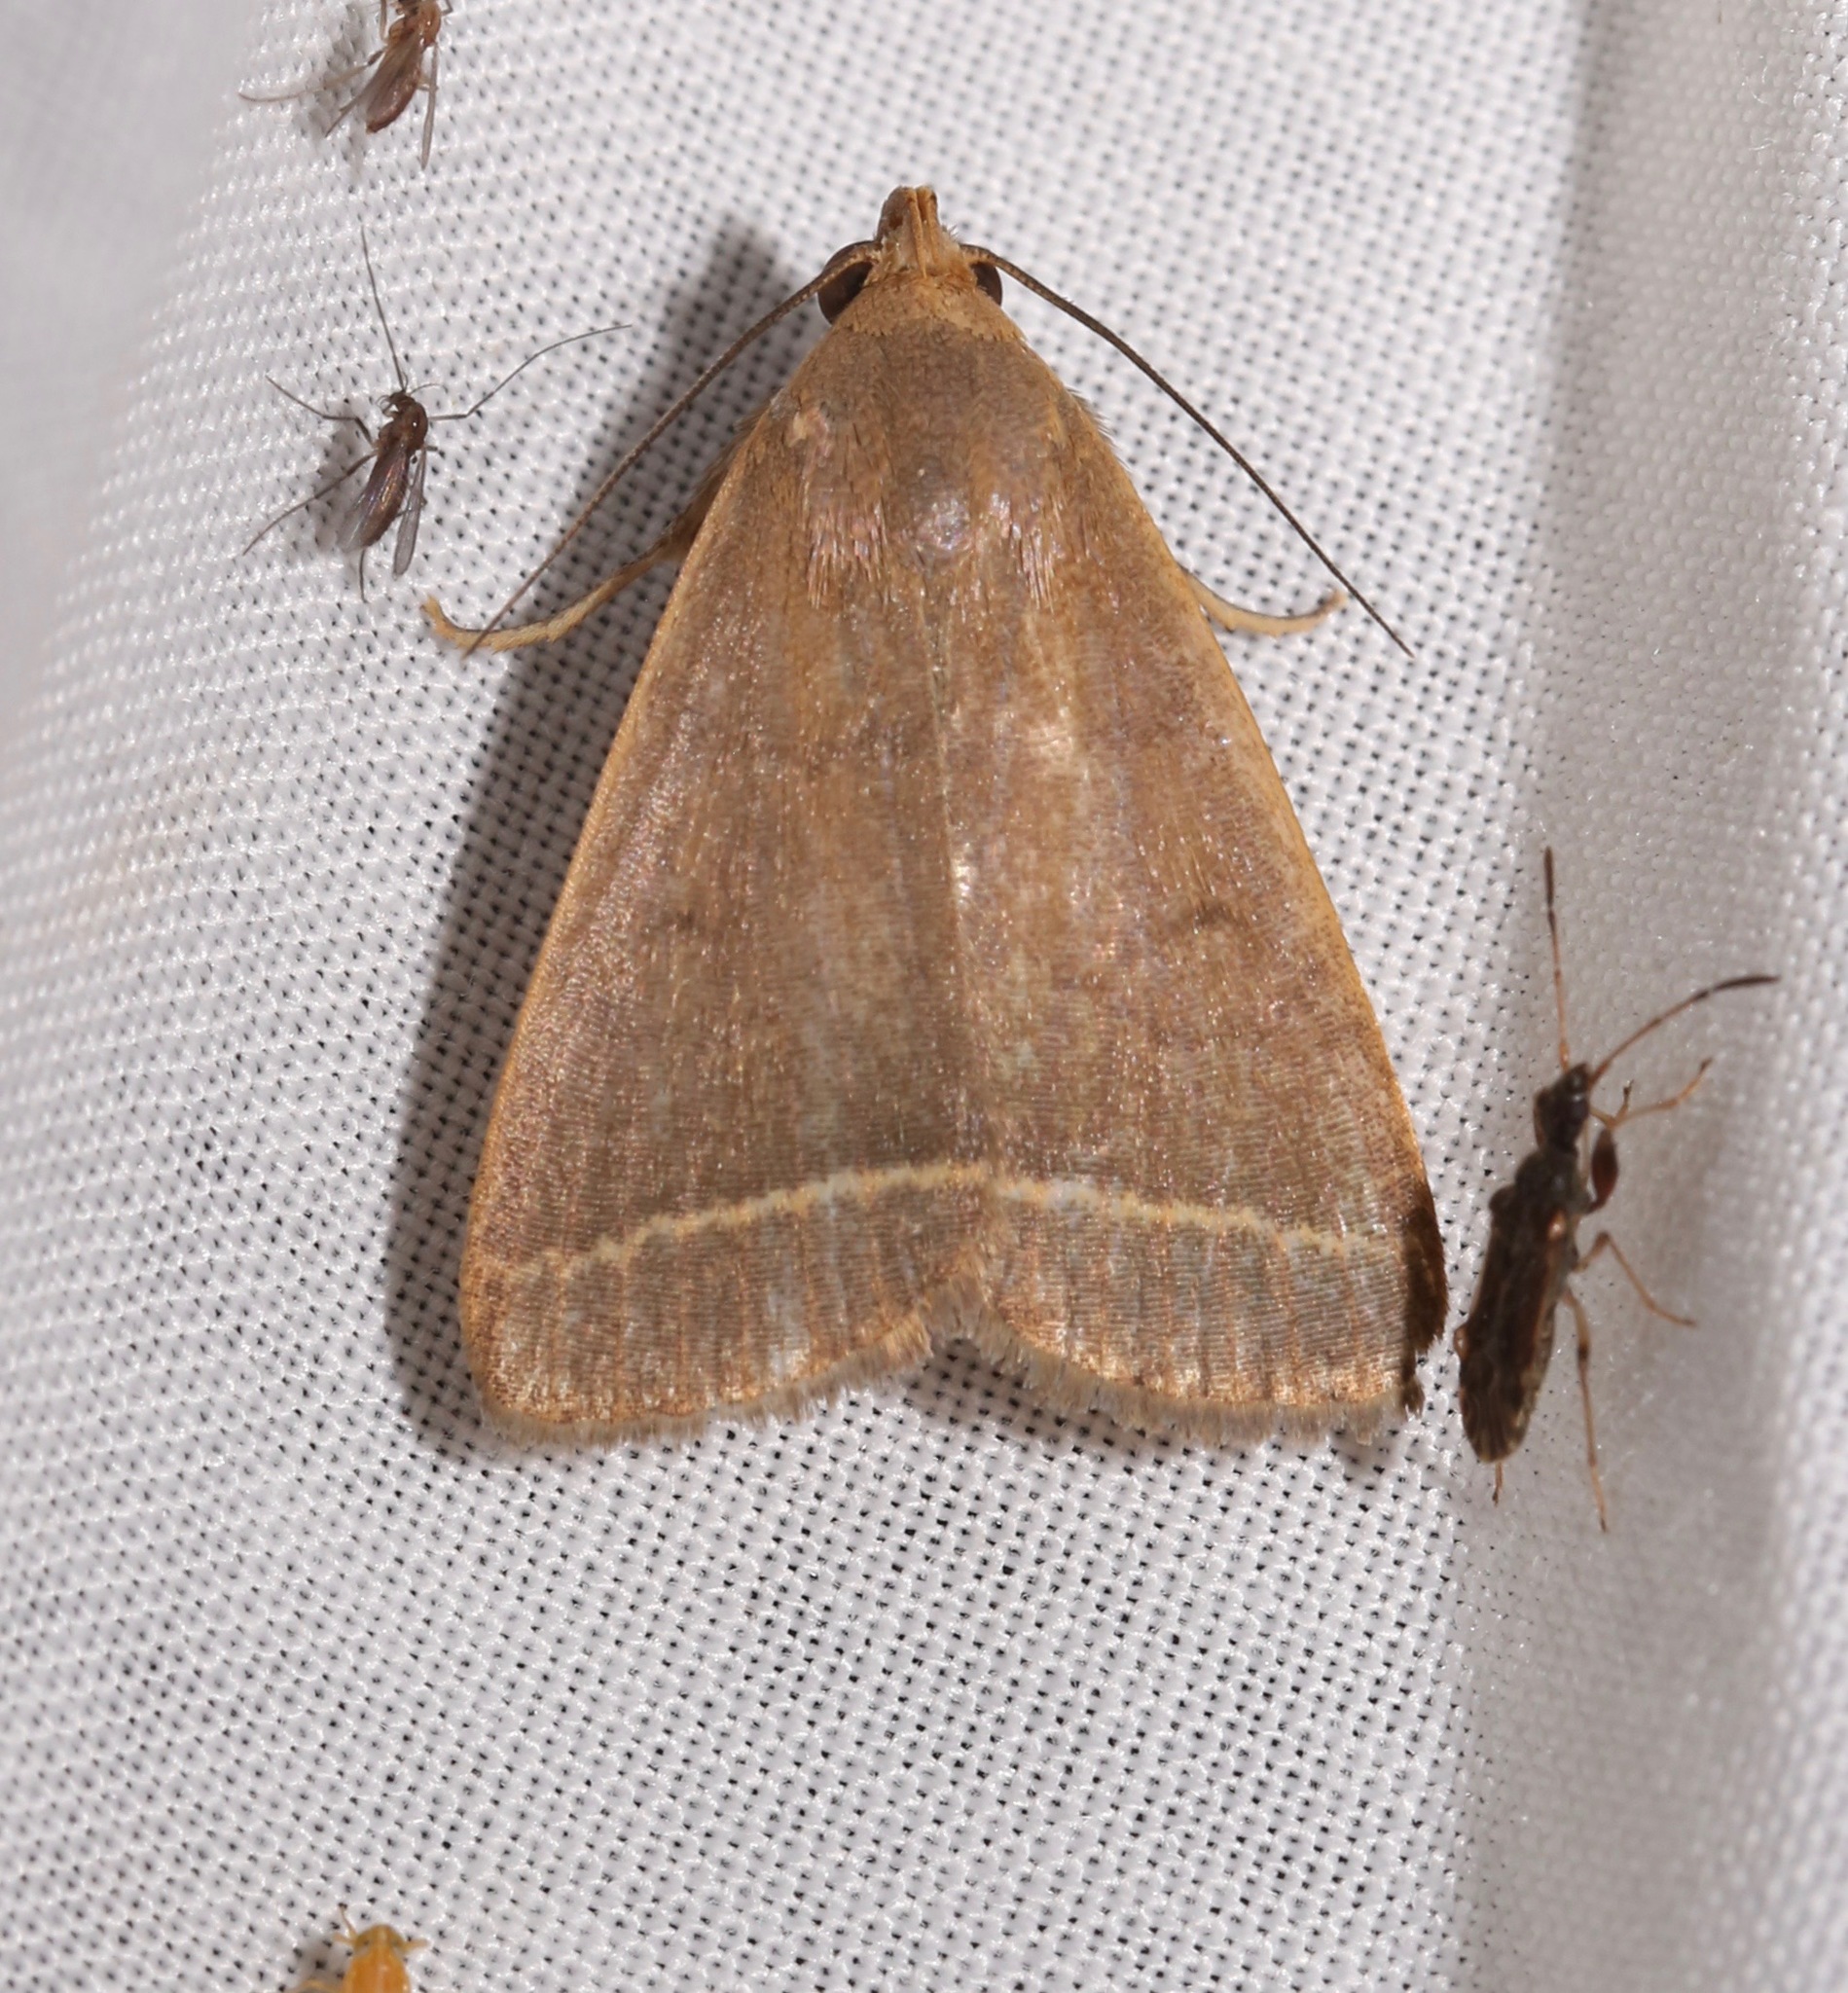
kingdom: Animalia
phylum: Arthropoda
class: Insecta
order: Lepidoptera
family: Erebidae
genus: Simplicia
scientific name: Simplicia cornicalis
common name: Tiki hut litter moth
